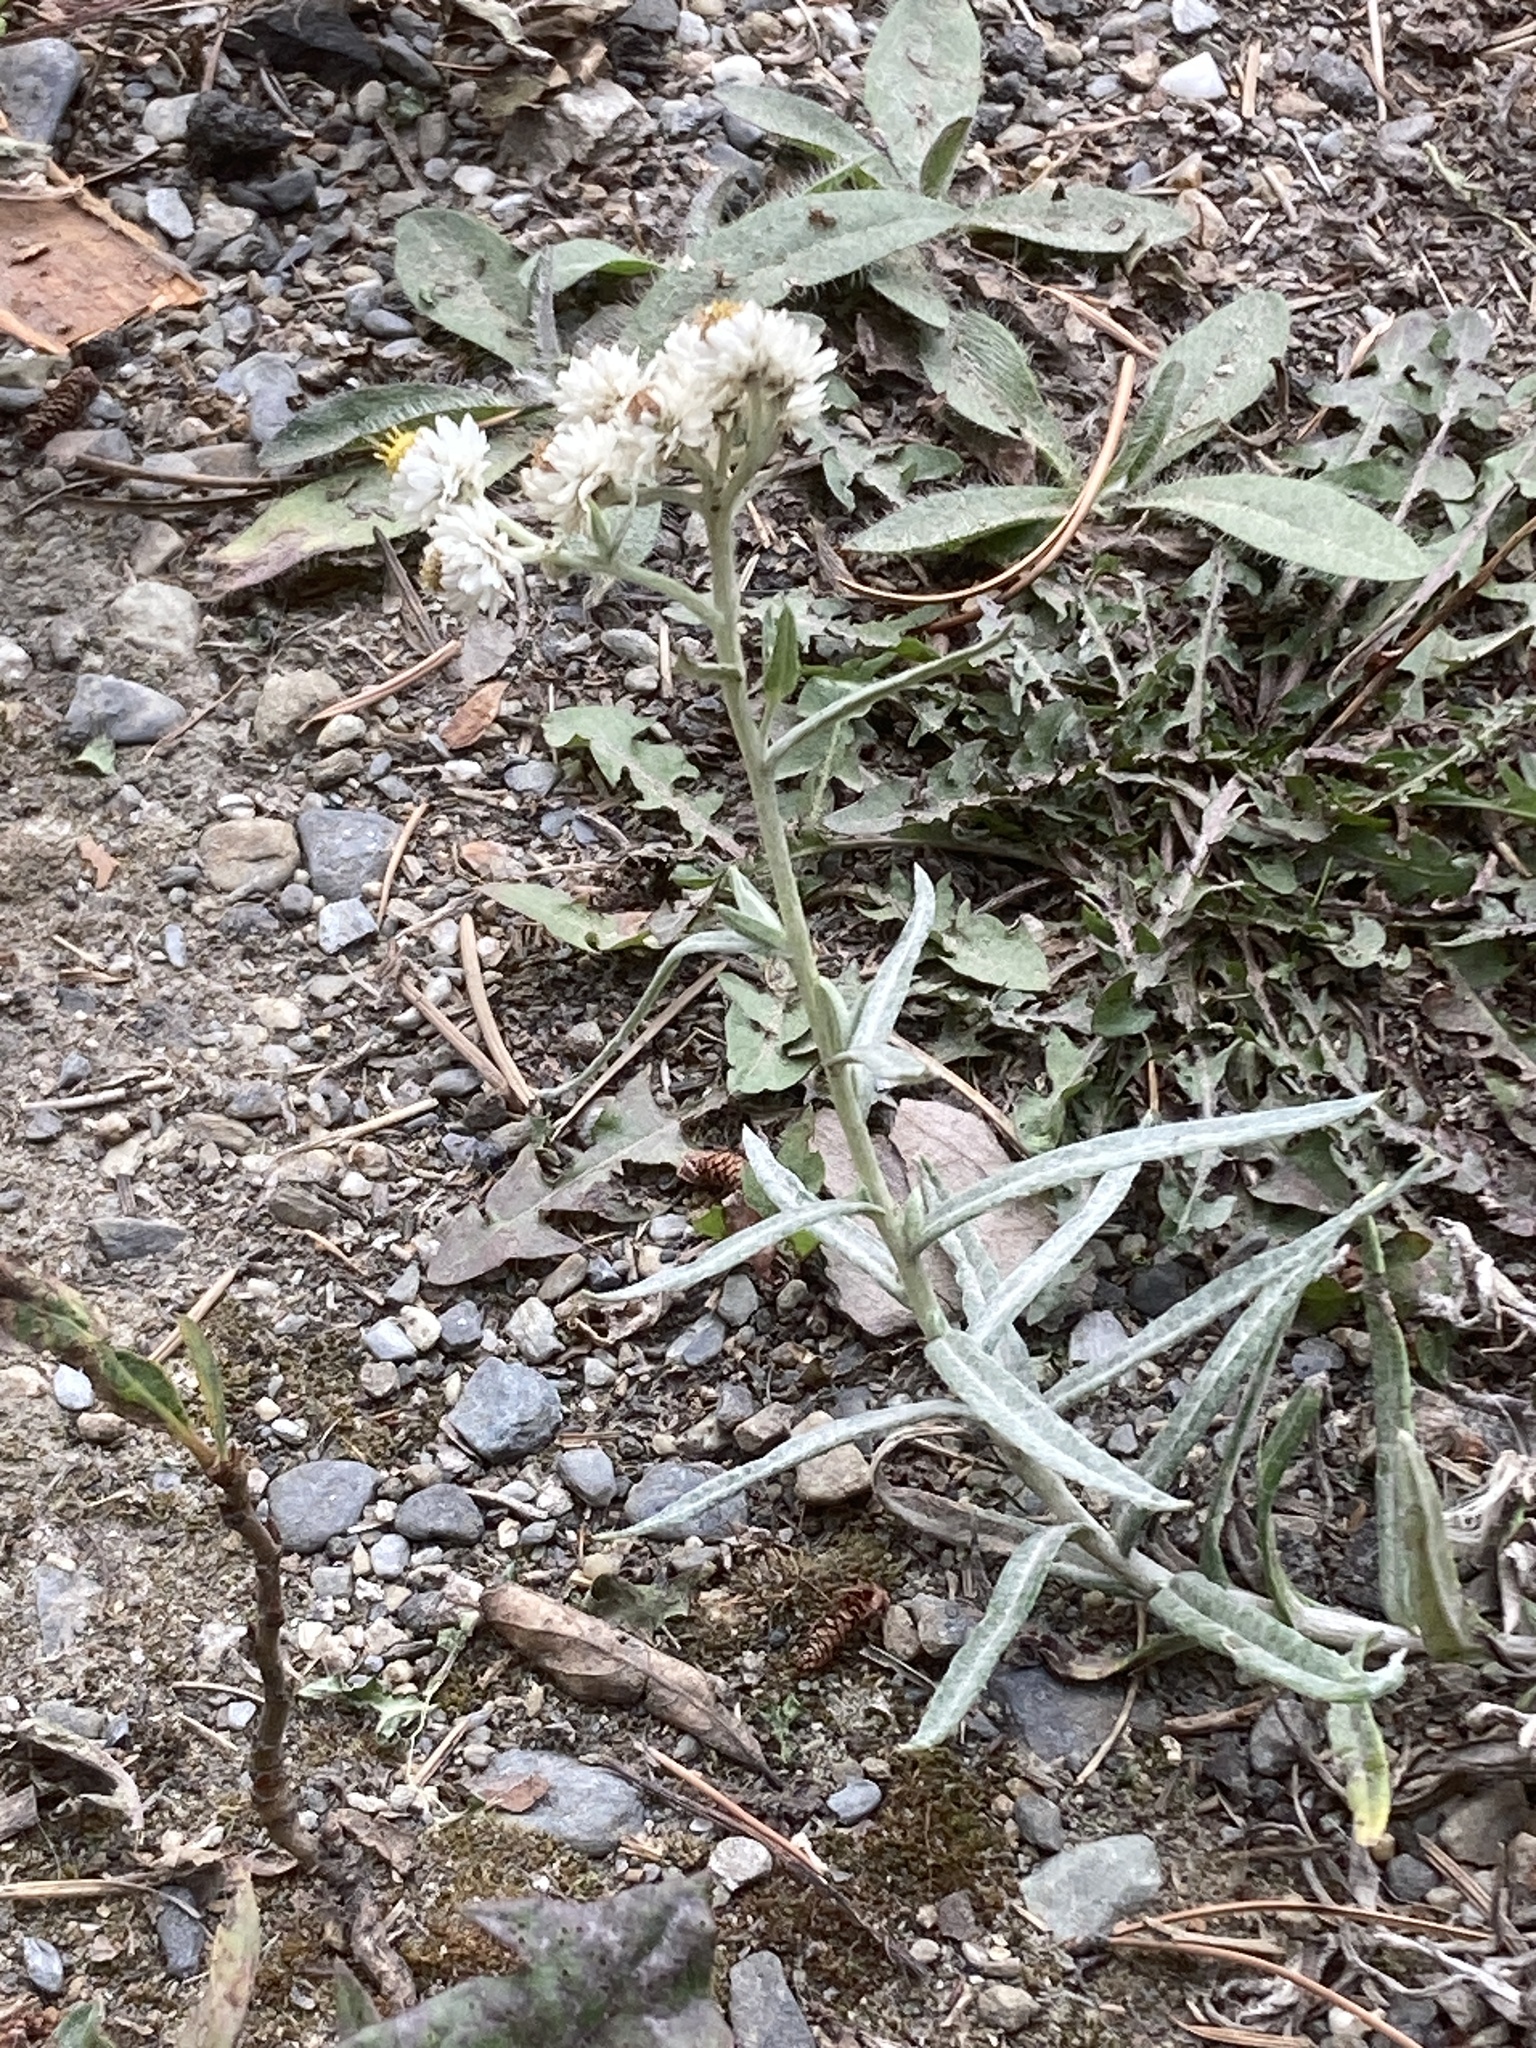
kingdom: Plantae
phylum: Tracheophyta
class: Magnoliopsida
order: Asterales
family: Asteraceae
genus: Anaphalis
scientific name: Anaphalis margaritacea
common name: Pearly everlasting
